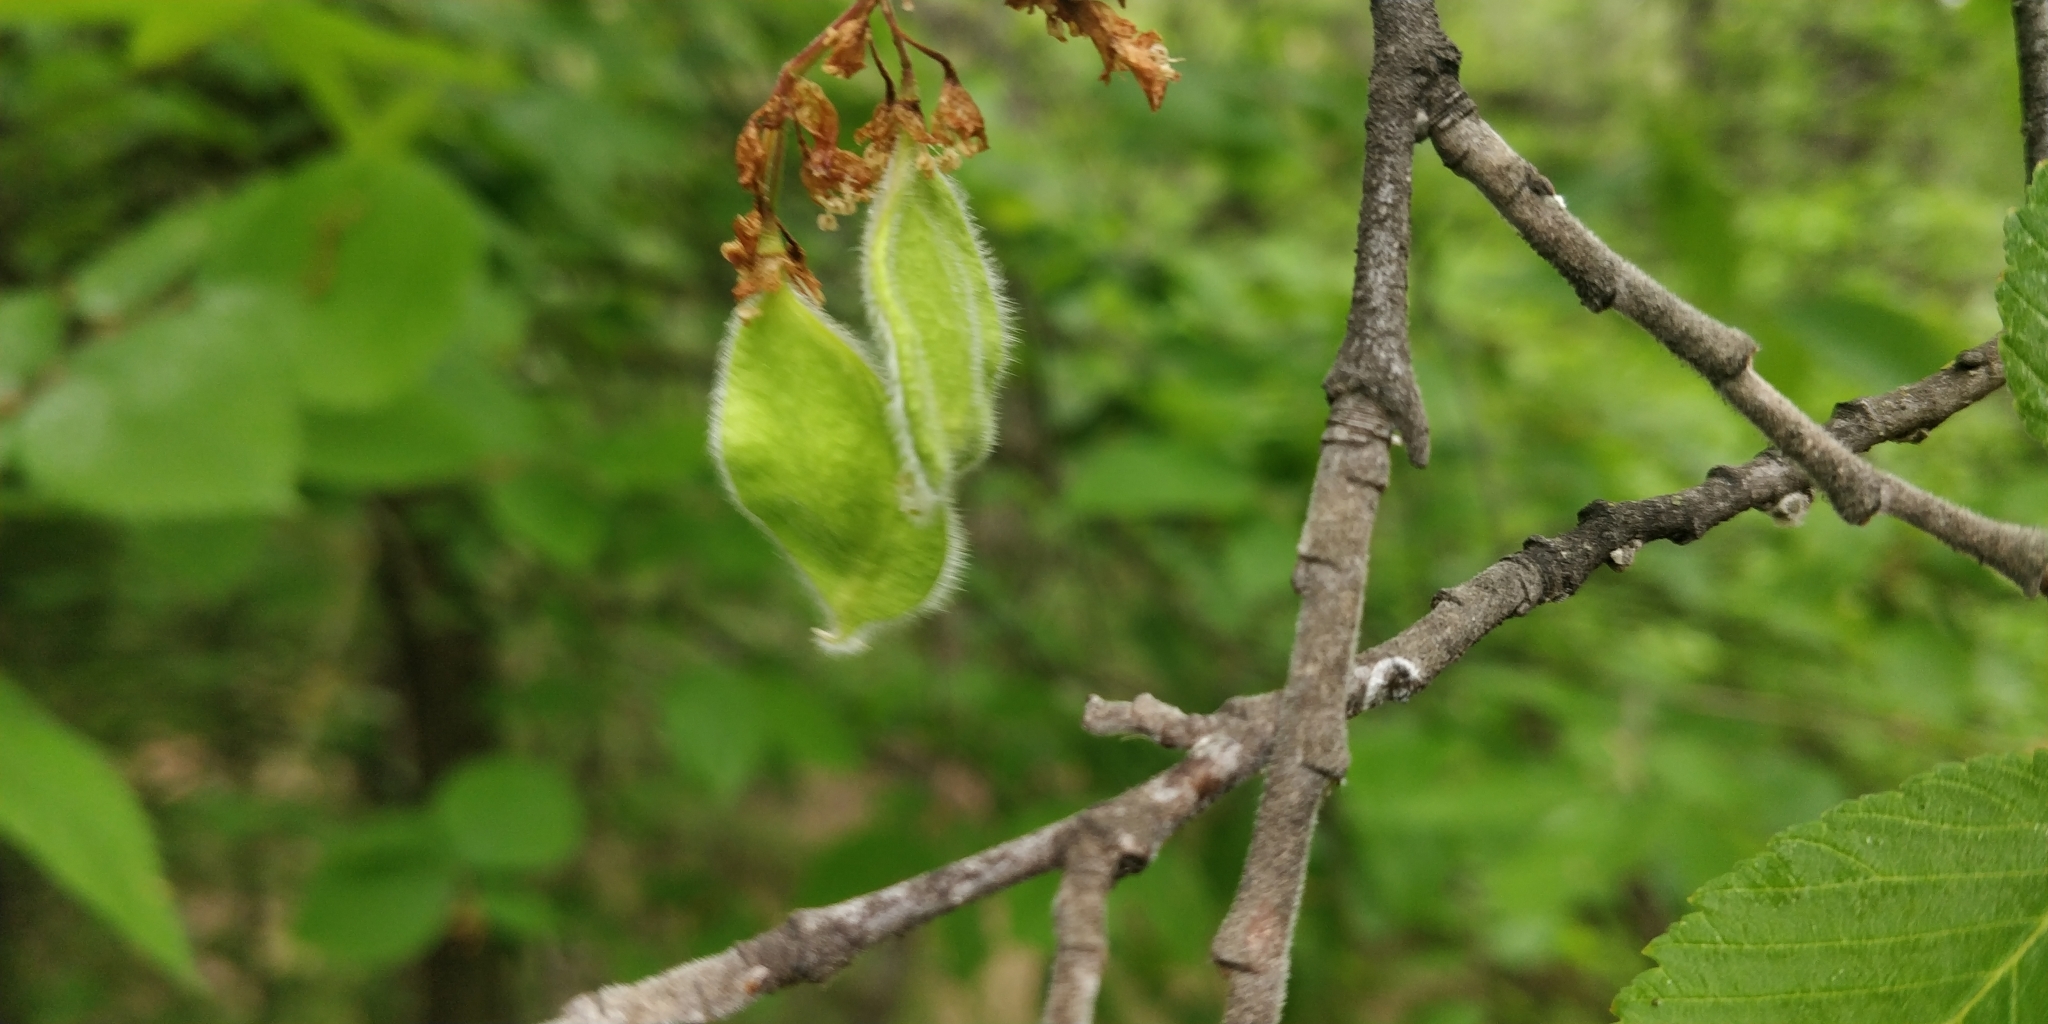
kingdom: Plantae
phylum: Tracheophyta
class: Magnoliopsida
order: Rosales
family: Ulmaceae
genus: Ulmus
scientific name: Ulmus thomasii
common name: Rock elm
